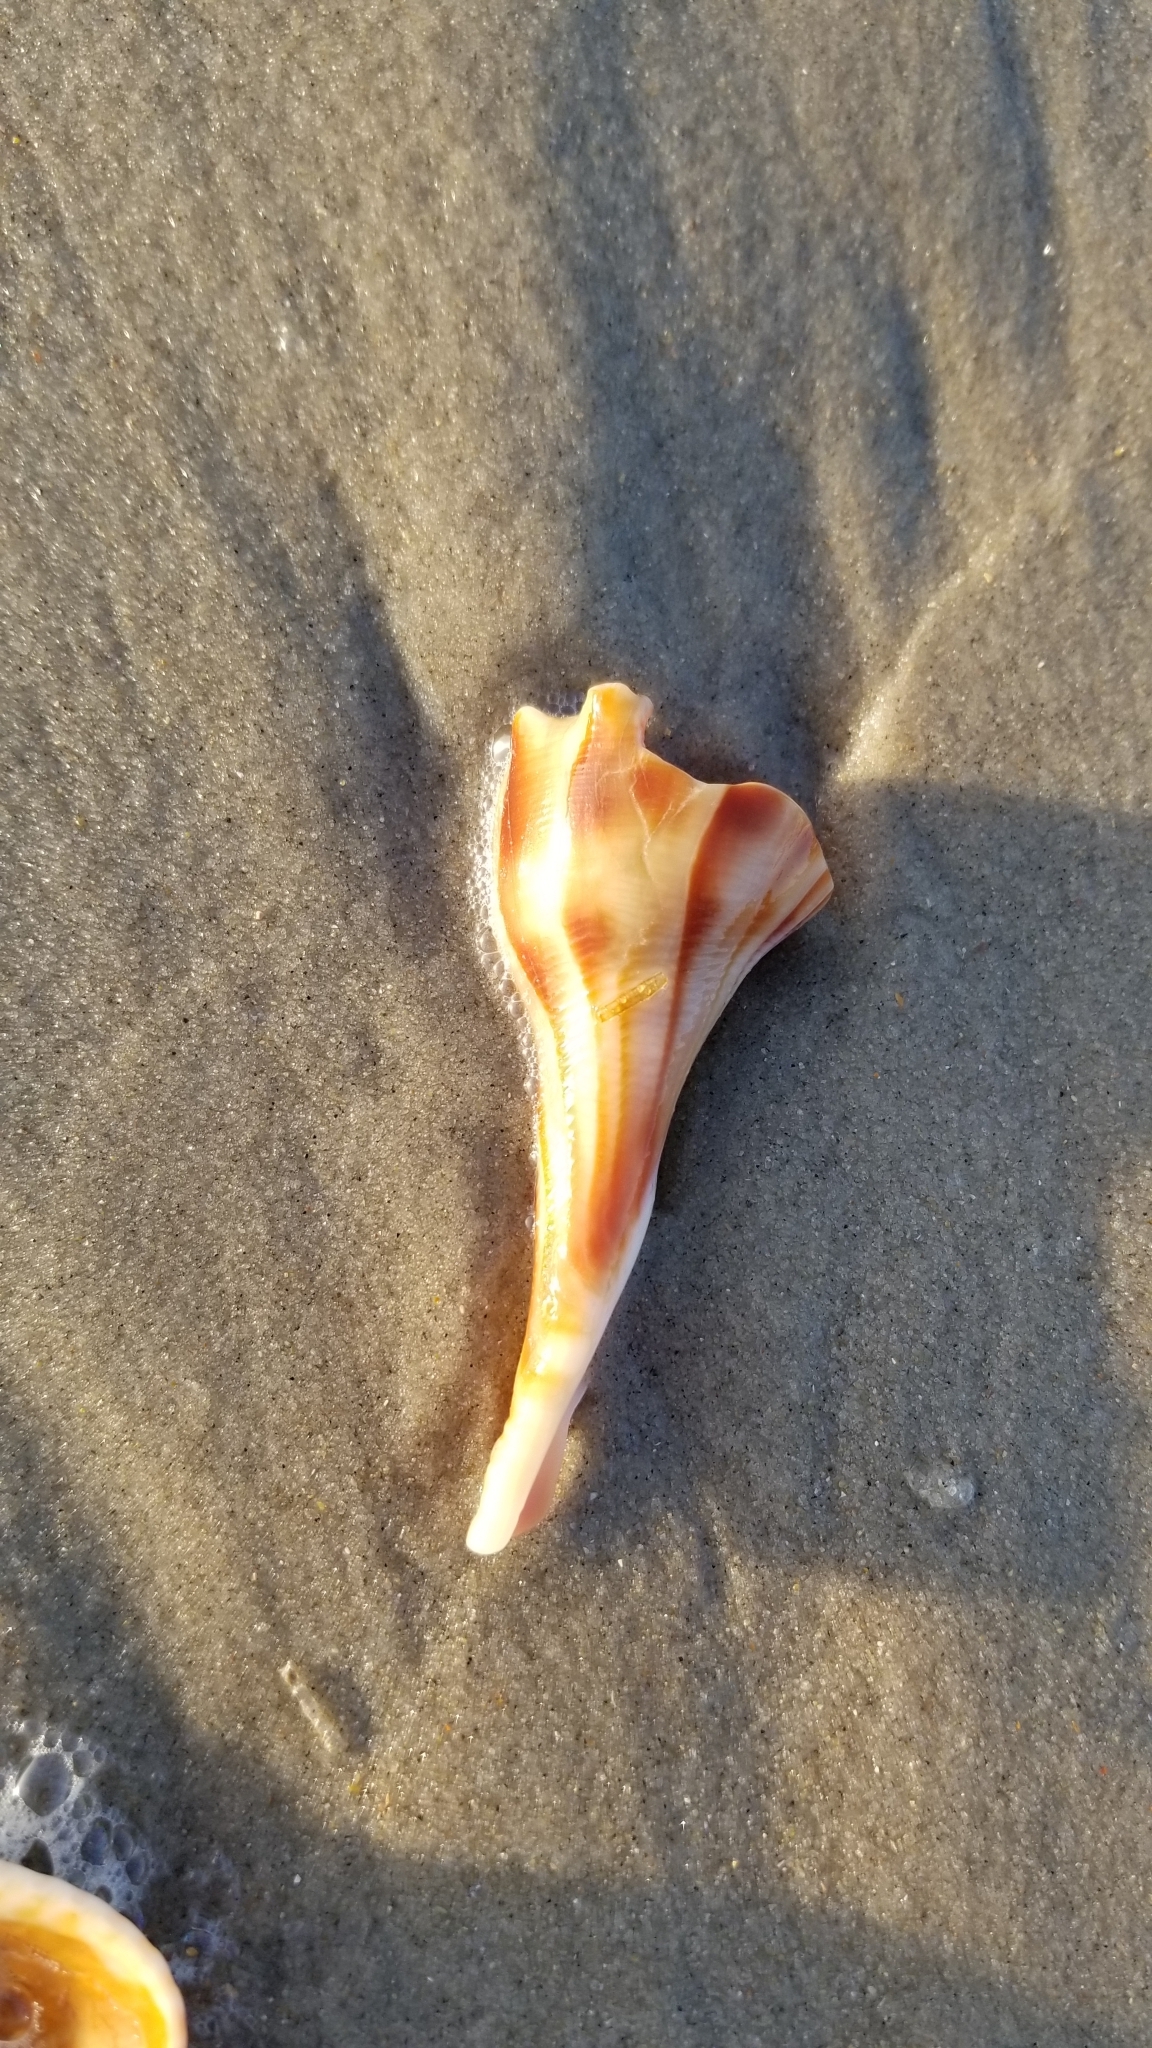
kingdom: Animalia
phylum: Mollusca
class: Gastropoda
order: Neogastropoda
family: Busyconidae
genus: Busycon
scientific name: Busycon carica
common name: Knobbed whelk
